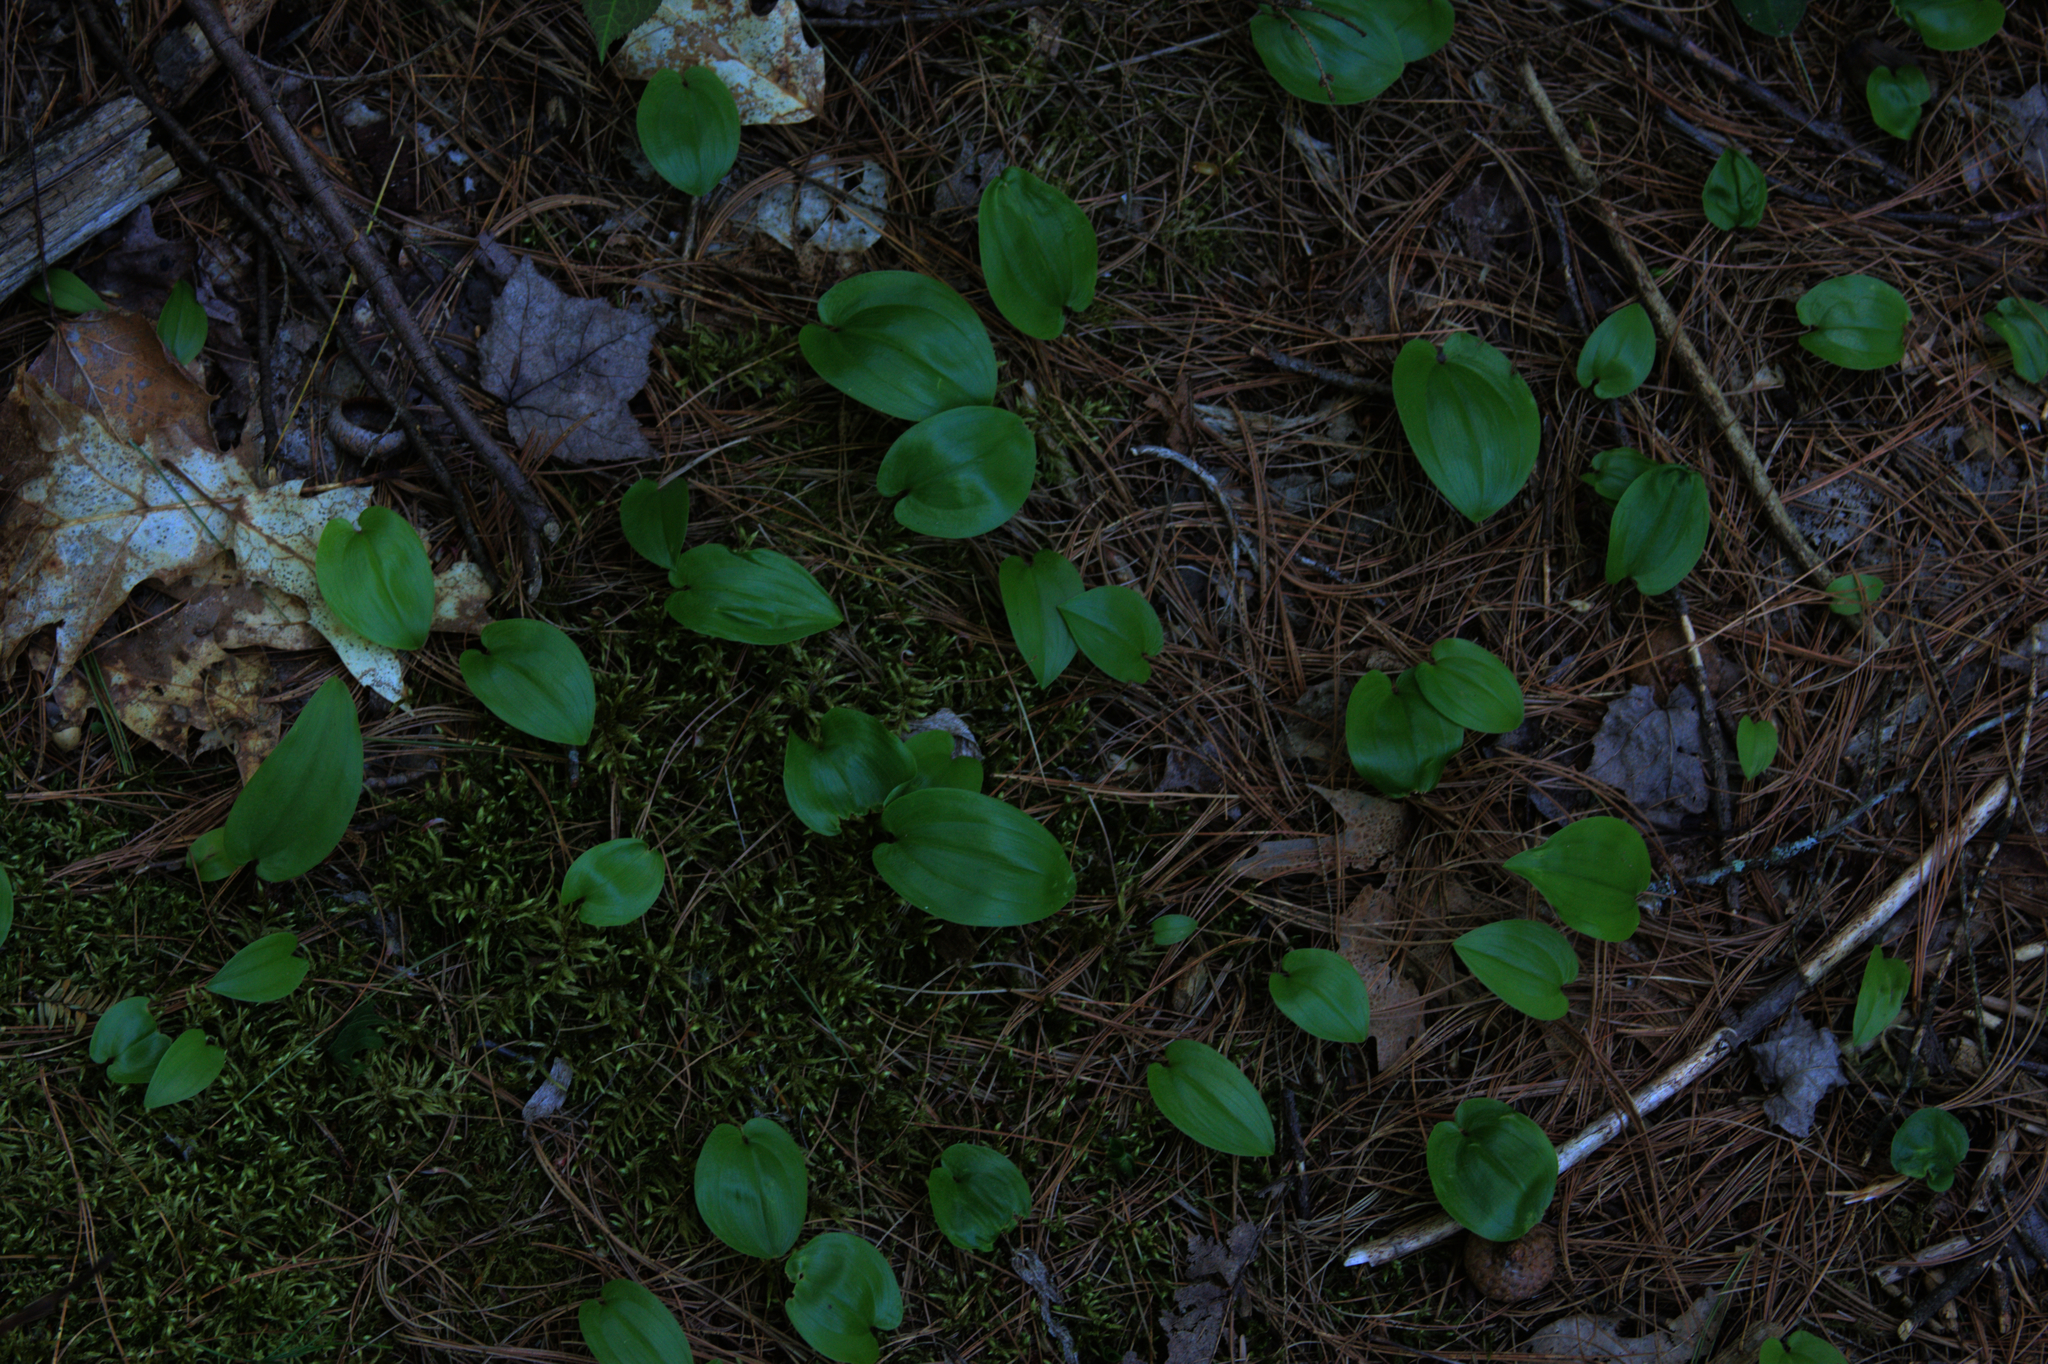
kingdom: Plantae
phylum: Tracheophyta
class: Liliopsida
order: Asparagales
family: Asparagaceae
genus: Maianthemum
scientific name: Maianthemum canadense
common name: False lily-of-the-valley
